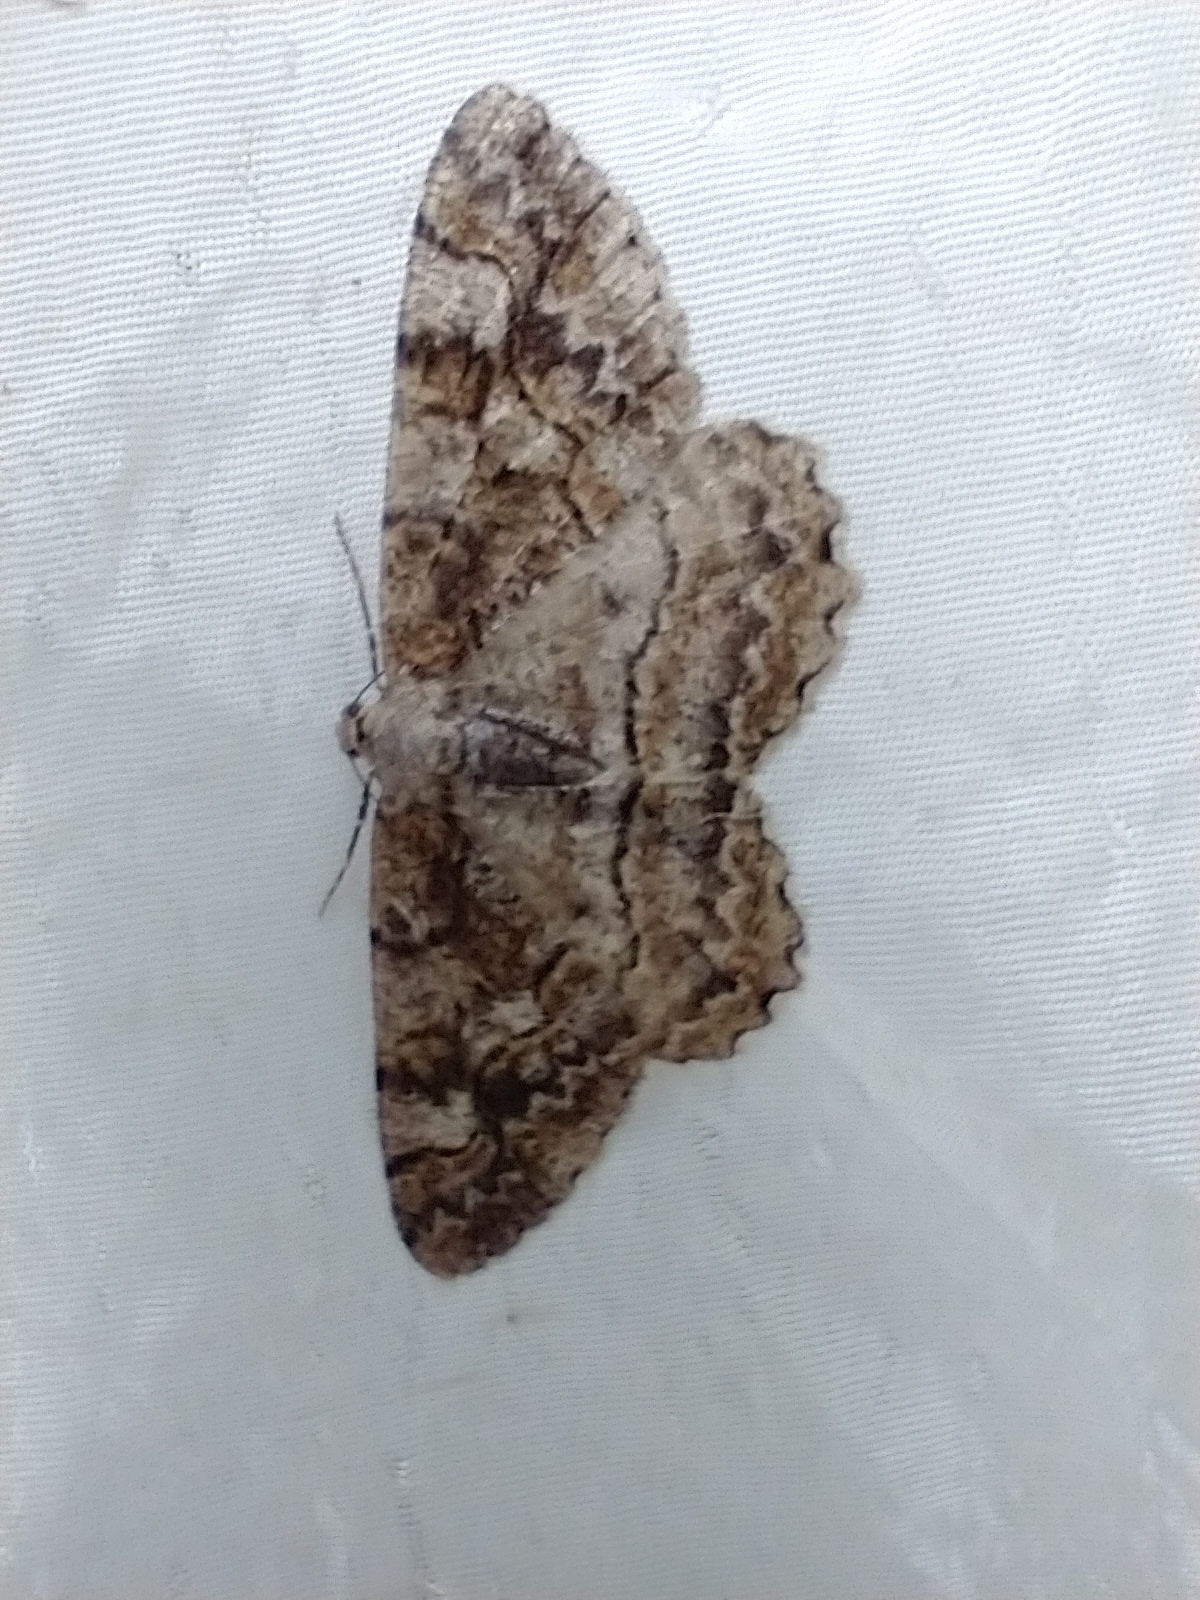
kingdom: Animalia
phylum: Arthropoda
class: Insecta
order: Lepidoptera
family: Geometridae
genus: Alcis
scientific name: Alcis repandata
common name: Mottled beauty
